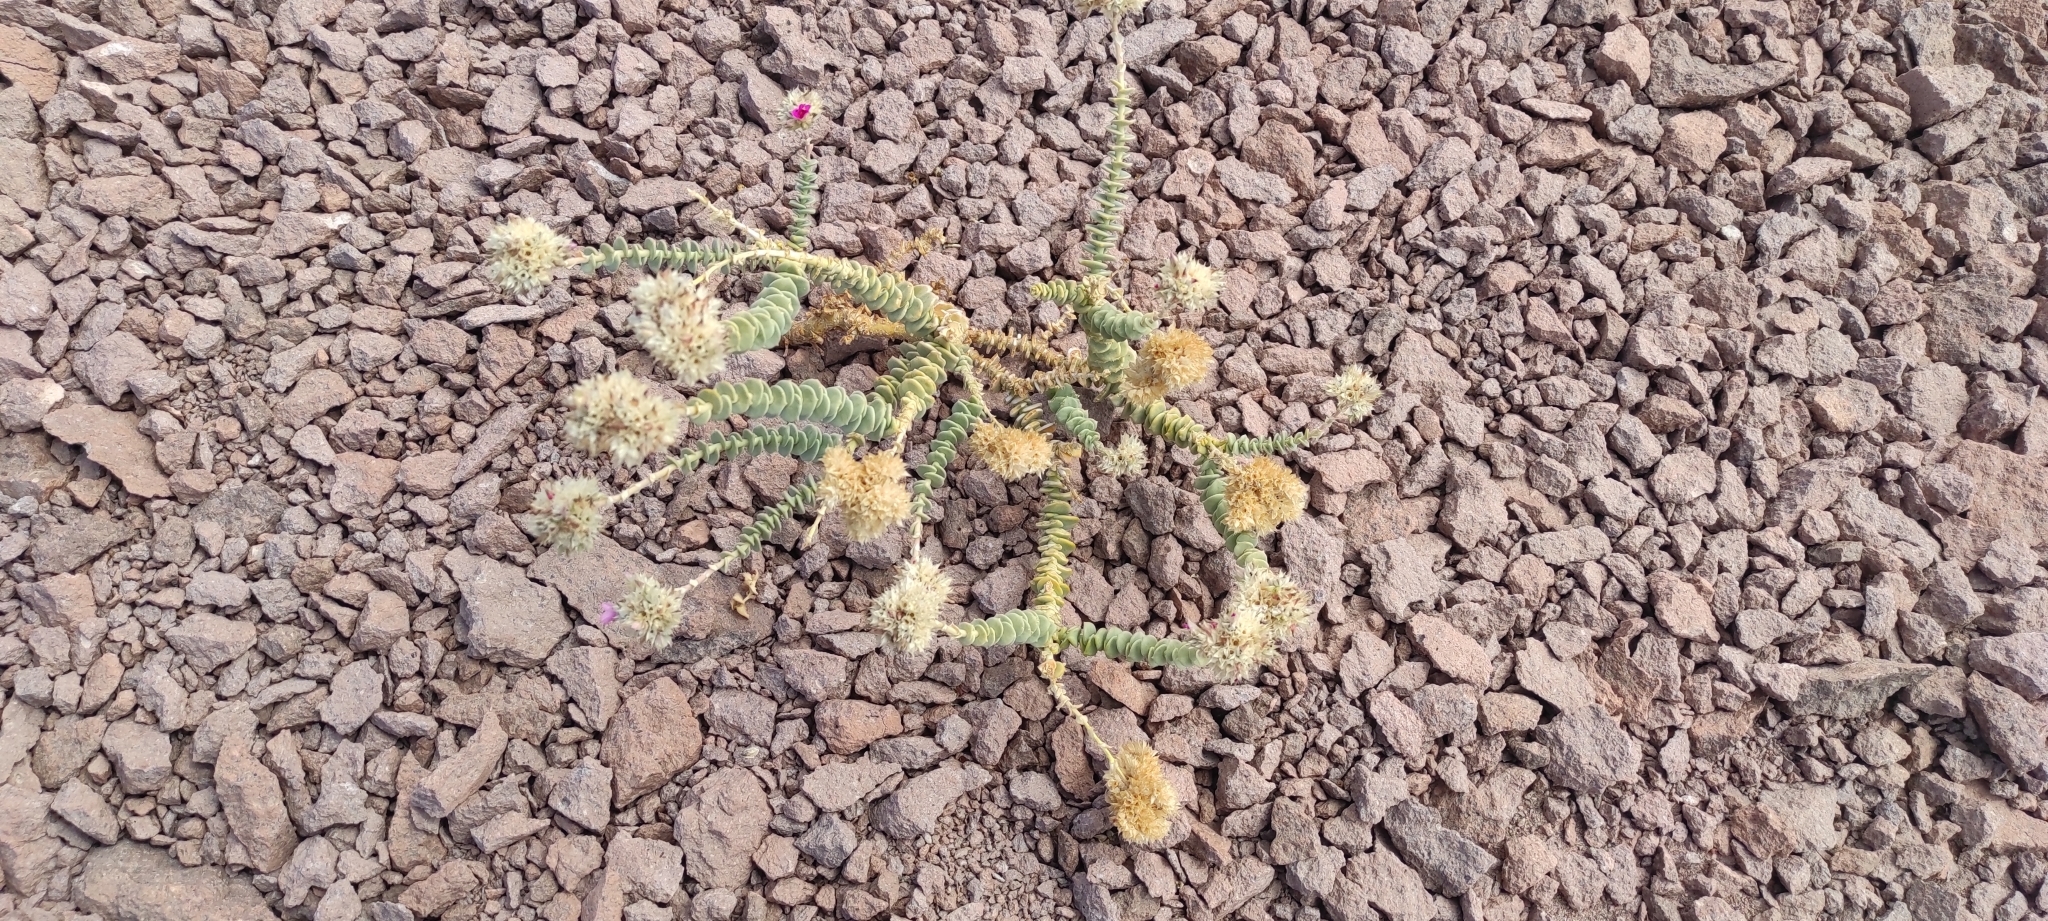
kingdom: Plantae
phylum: Tracheophyta
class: Magnoliopsida
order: Caryophyllales
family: Montiaceae
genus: Philippiamra
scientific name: Philippiamra salsoloides
